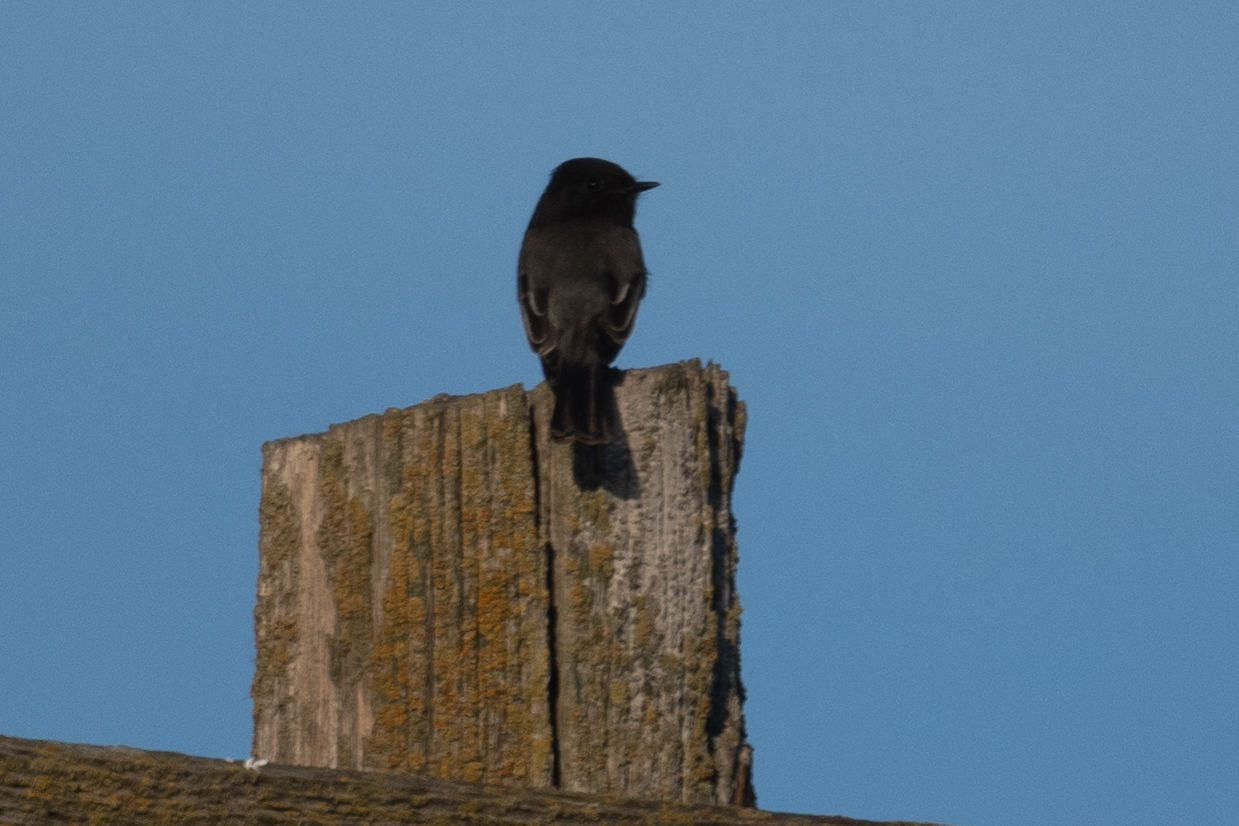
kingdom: Animalia
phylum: Chordata
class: Aves
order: Passeriformes
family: Tyrannidae
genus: Sayornis
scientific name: Sayornis nigricans
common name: Black phoebe
